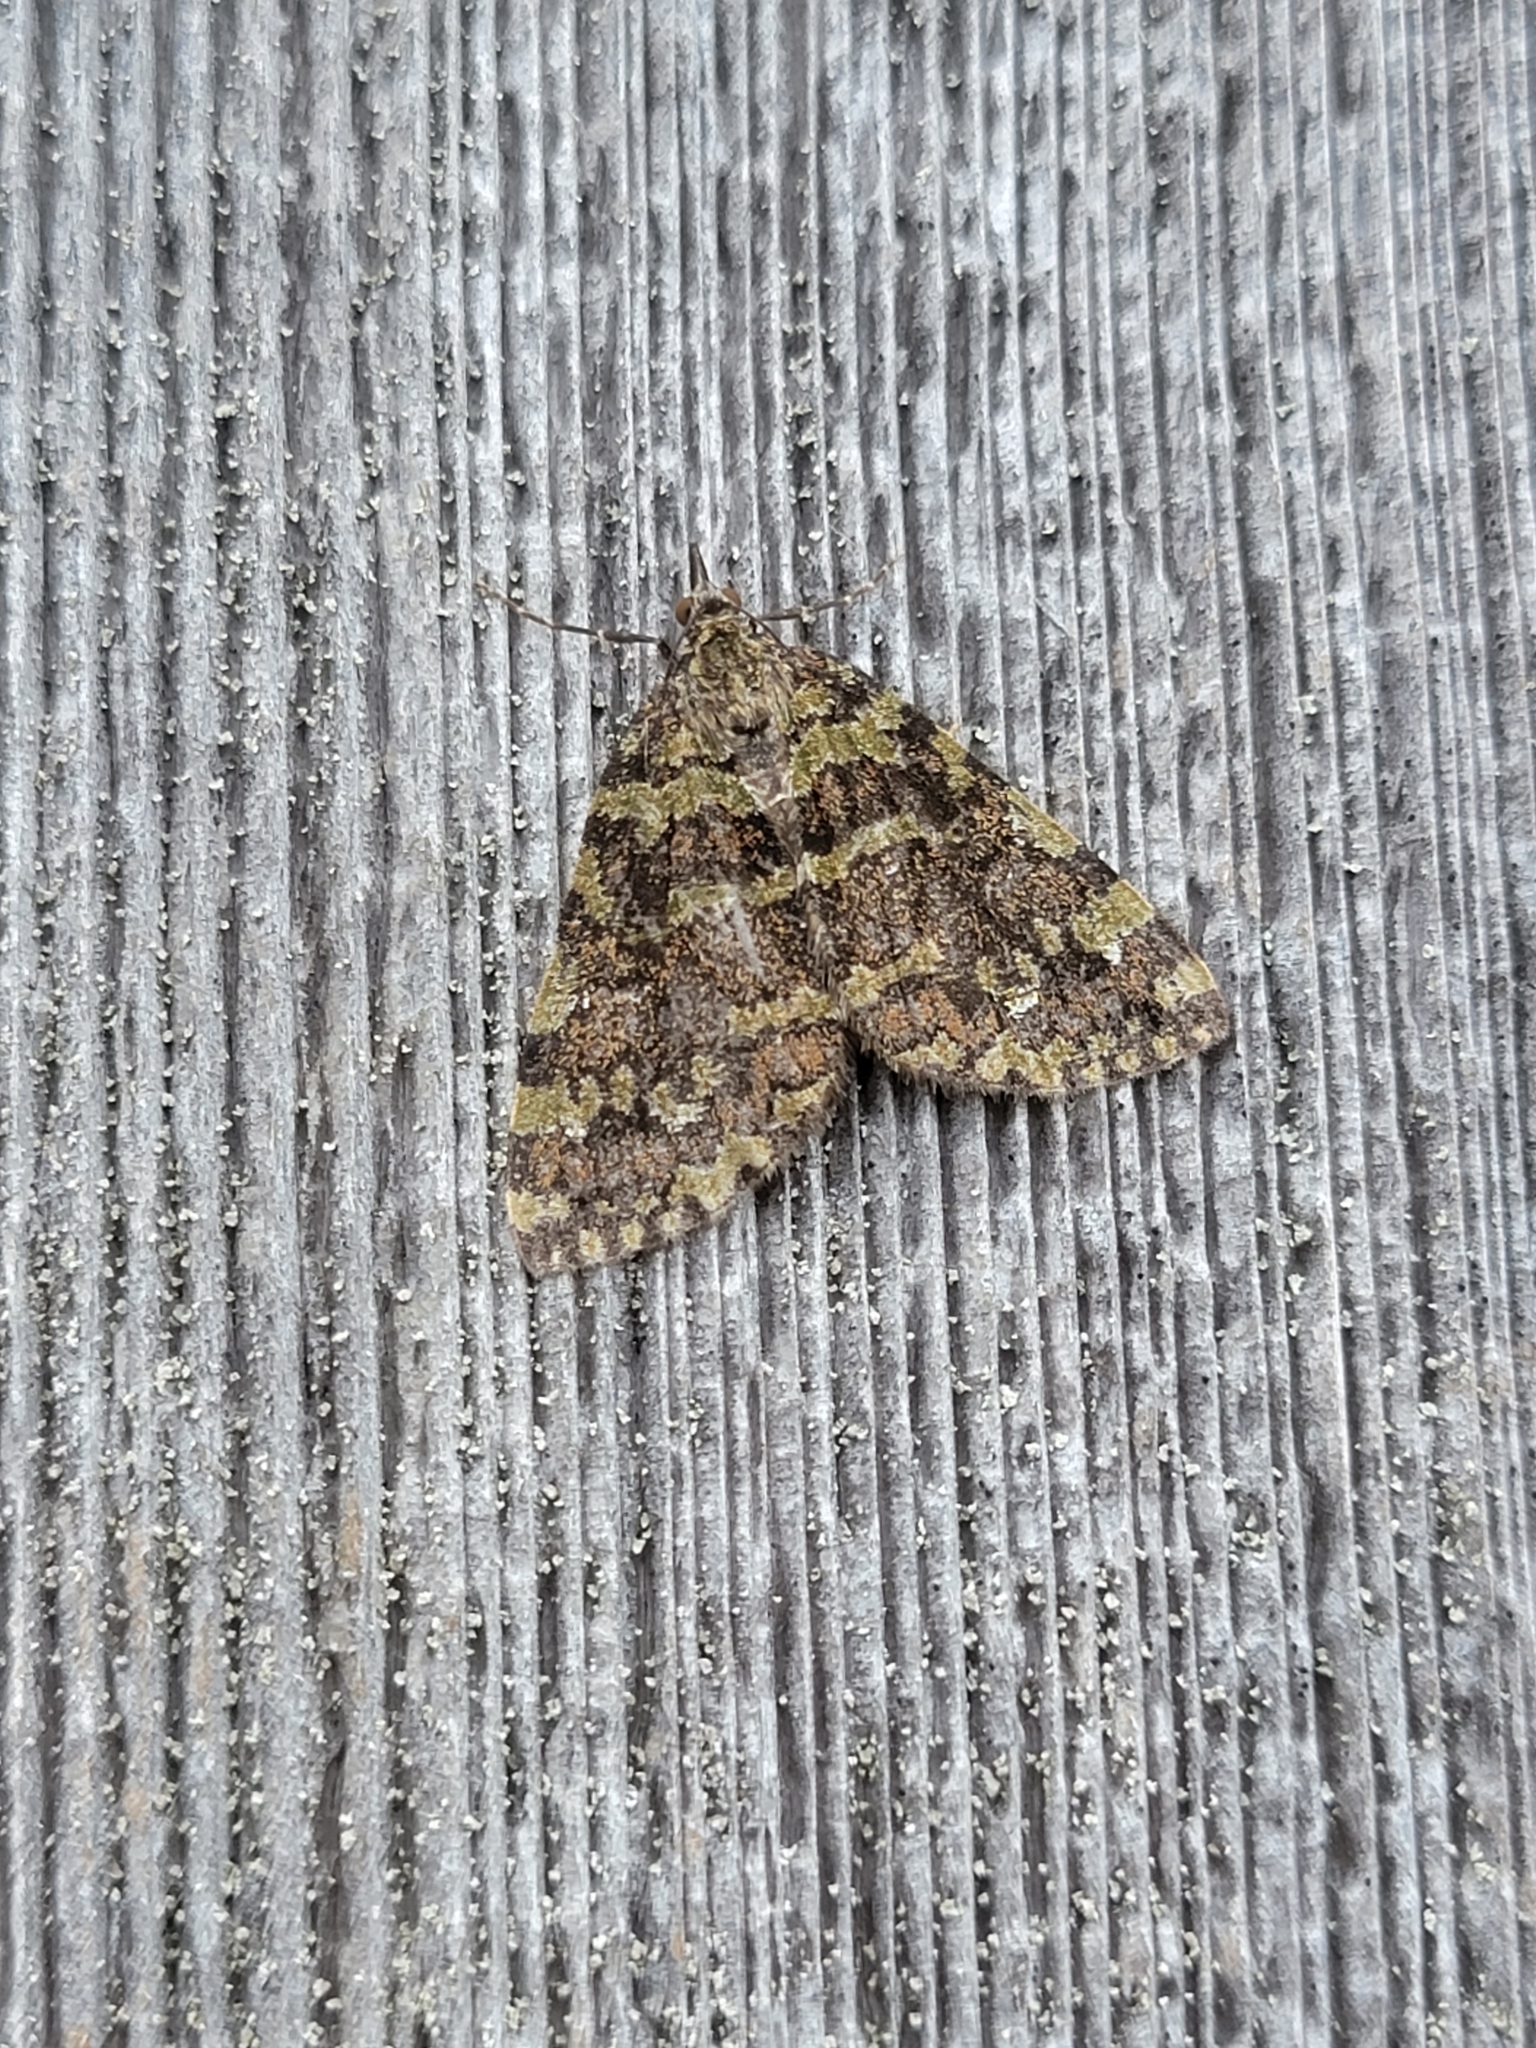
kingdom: Animalia
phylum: Arthropoda
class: Insecta
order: Lepidoptera
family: Geometridae
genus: Hydriomena
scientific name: Hydriomena speciosata
